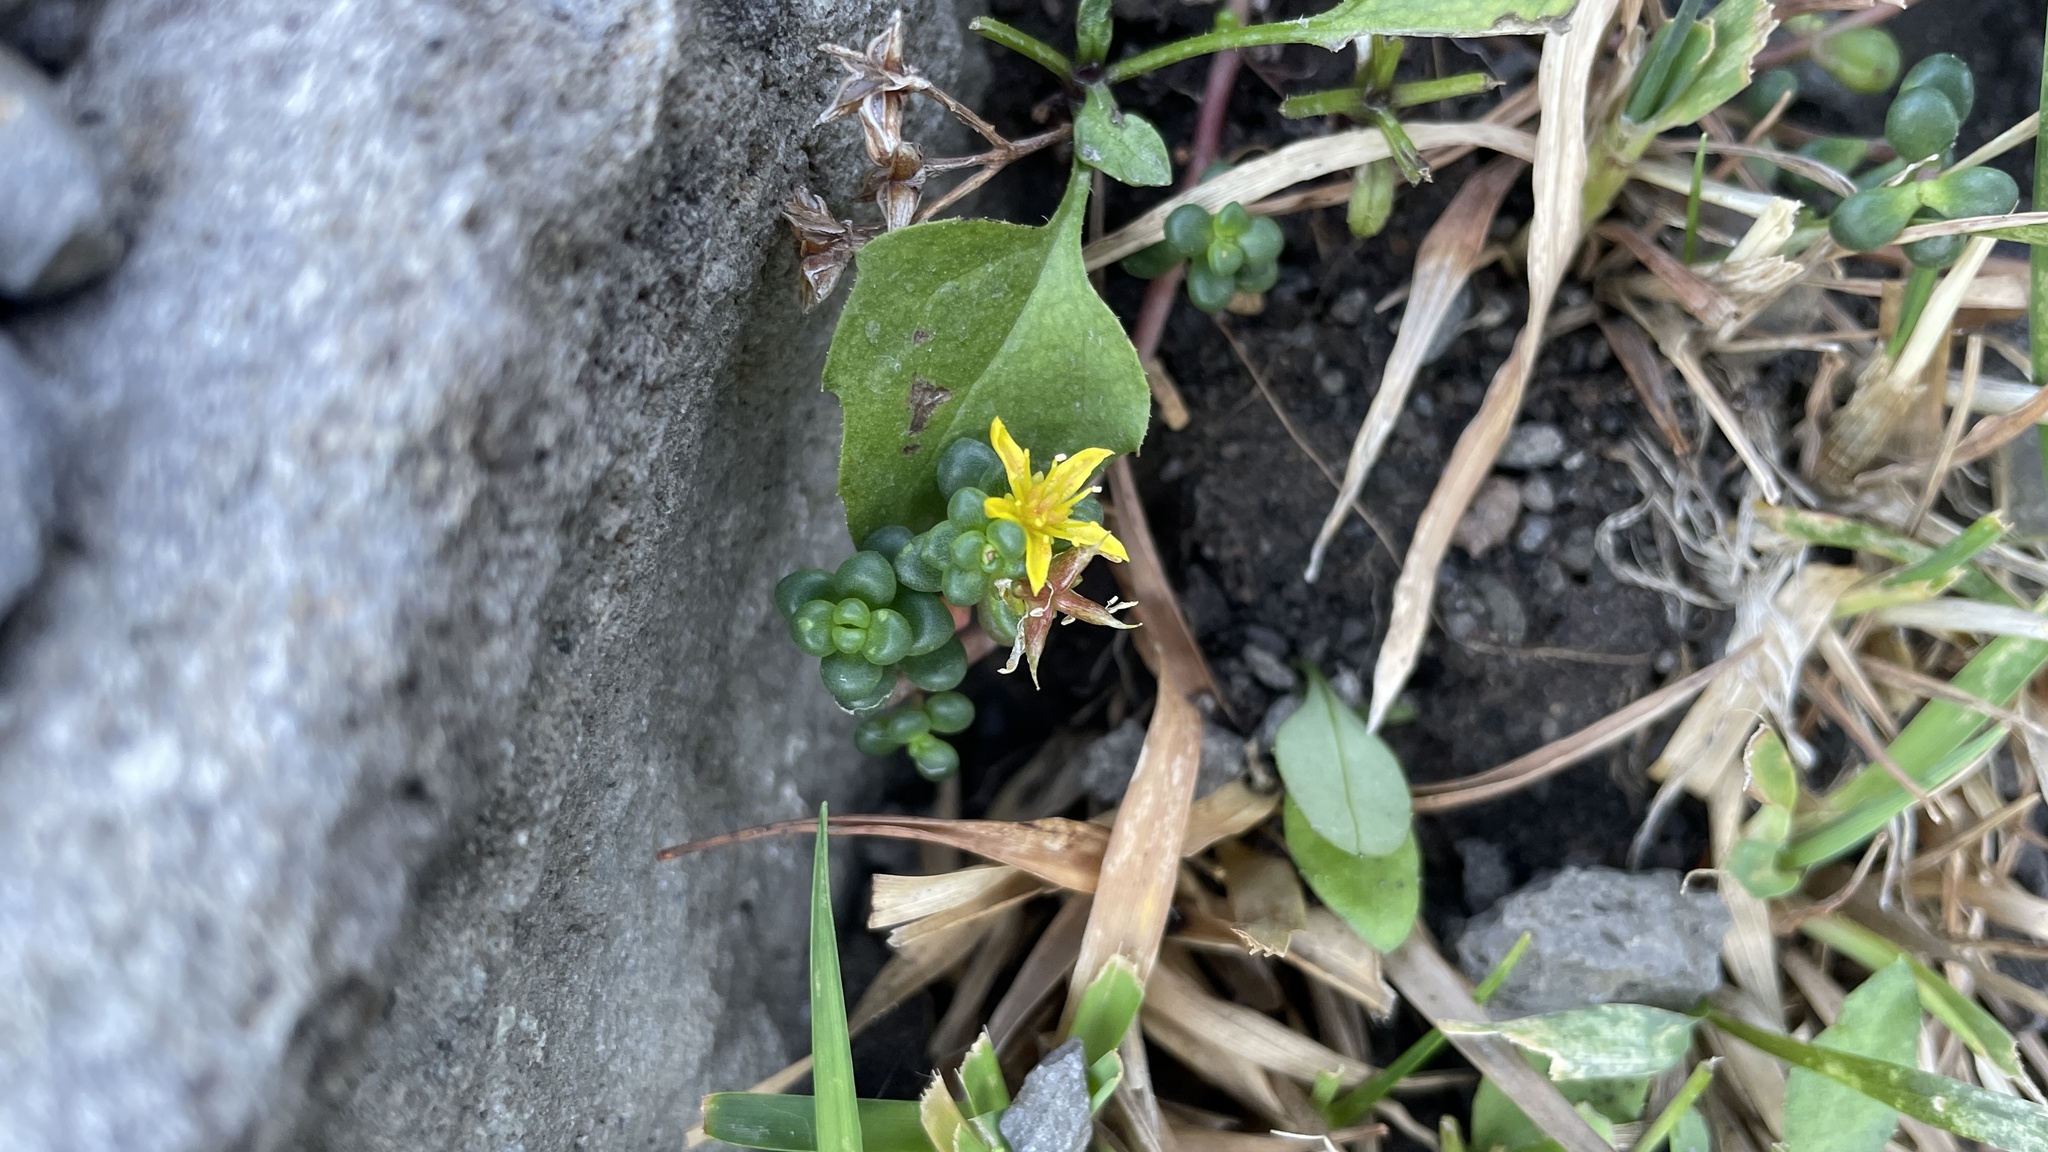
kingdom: Plantae
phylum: Tracheophyta
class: Magnoliopsida
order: Saxifragales
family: Crassulaceae
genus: Sedum
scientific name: Sedum divergens
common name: Cascade stonecrop
